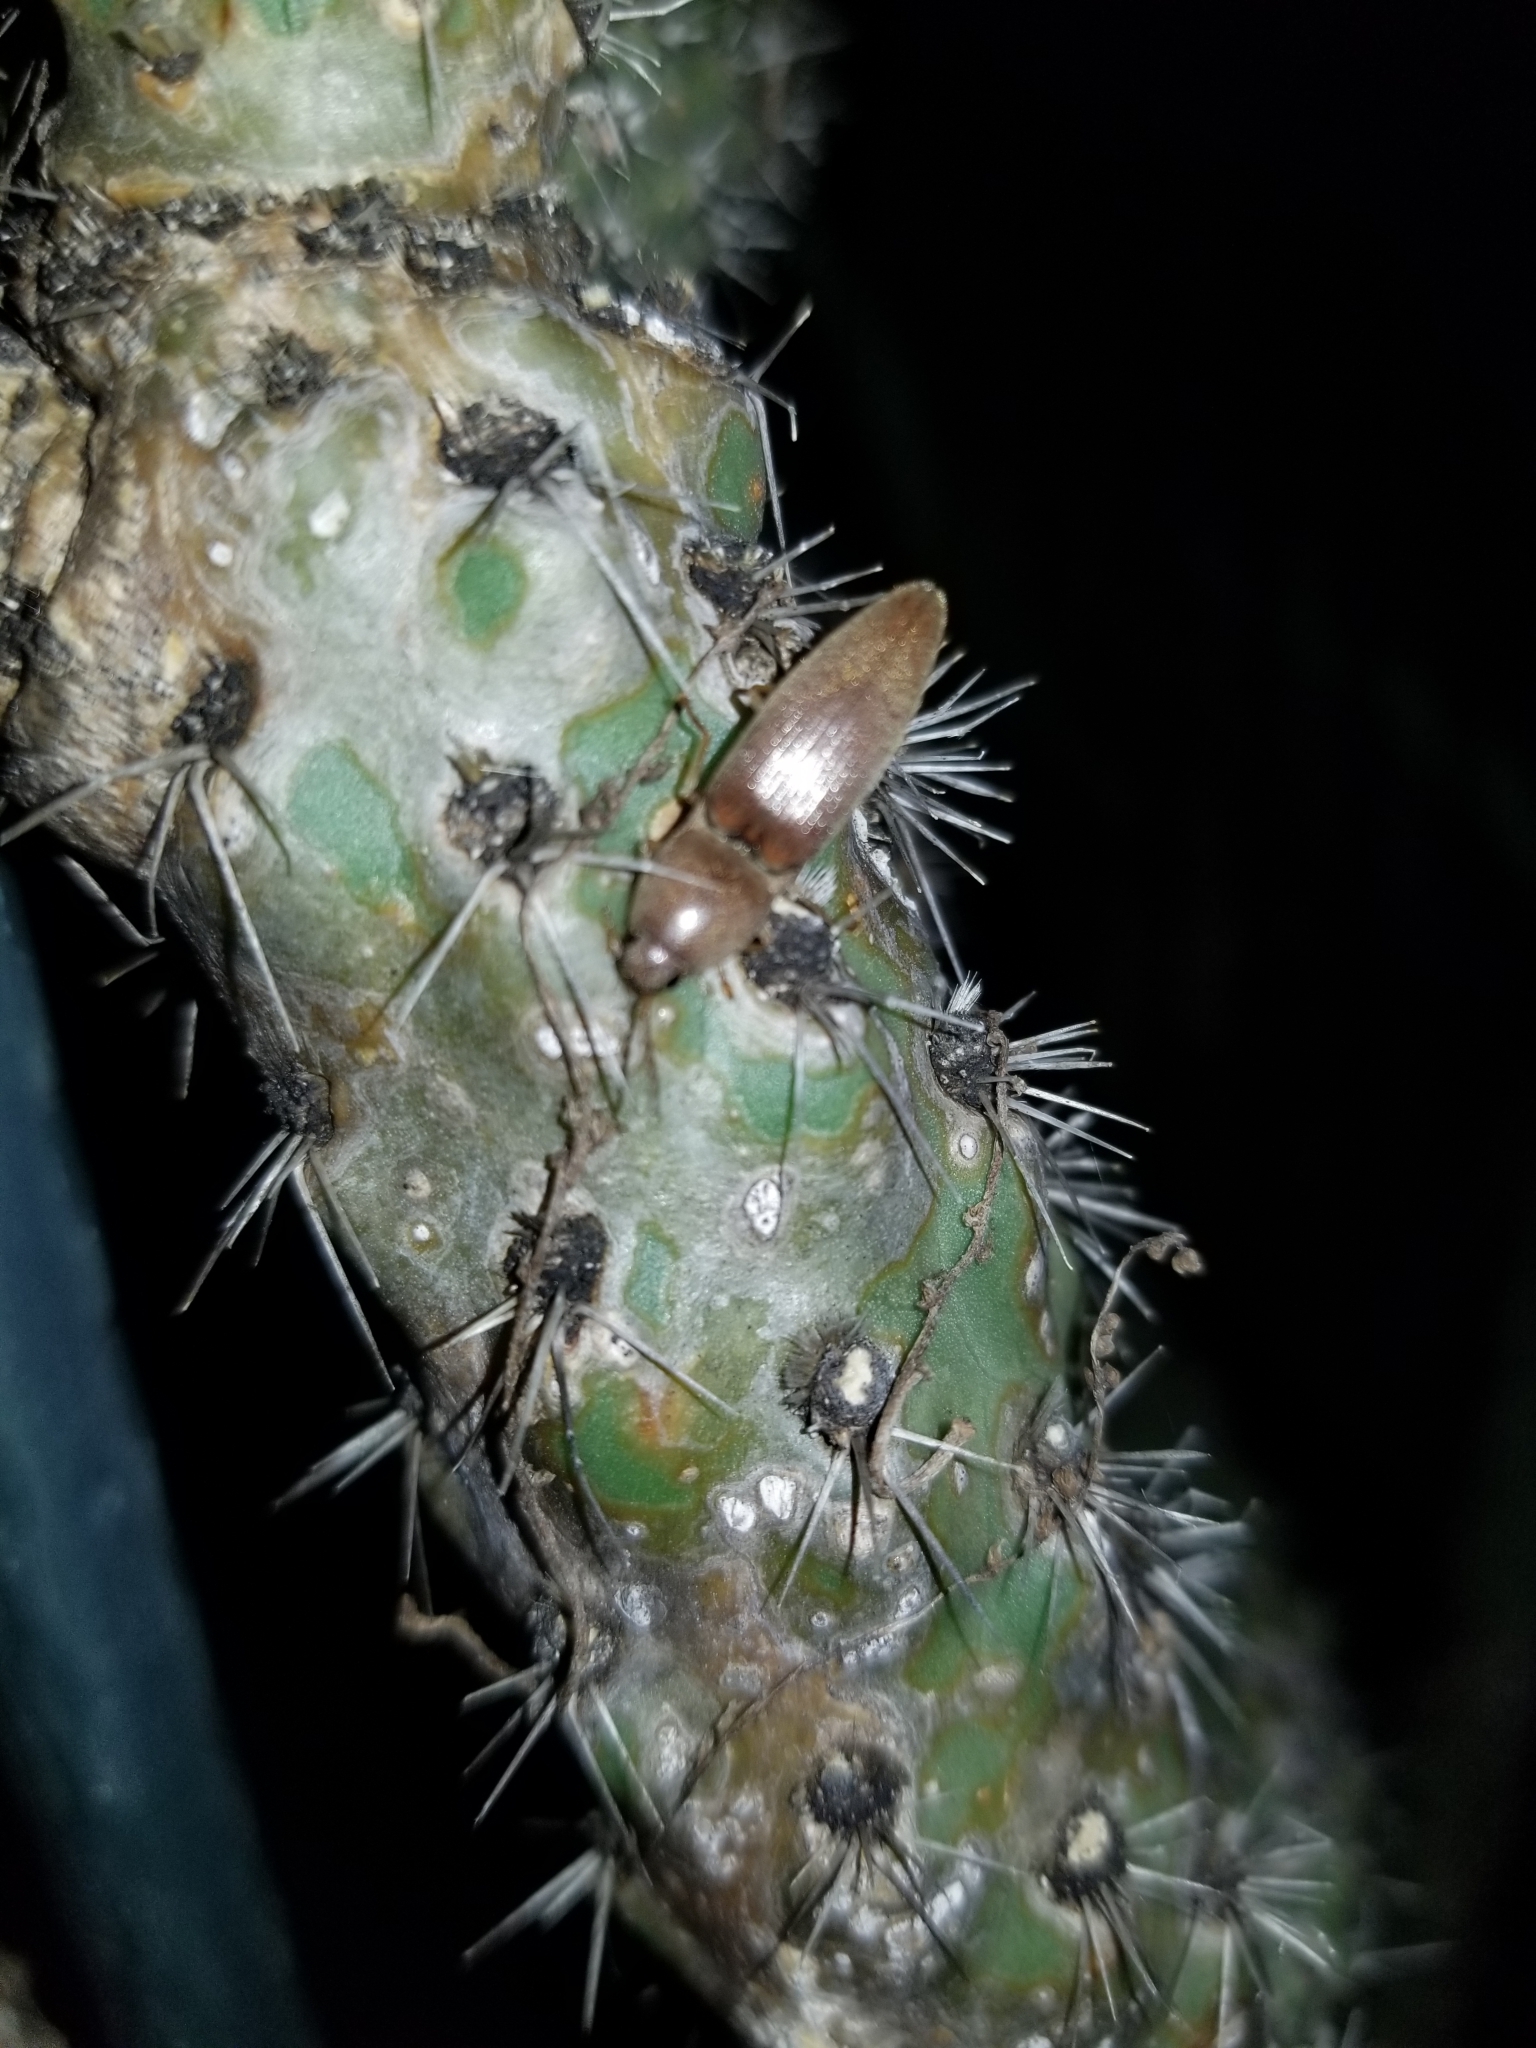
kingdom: Animalia
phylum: Arthropoda
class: Insecta
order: Coleoptera
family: Elateridae
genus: Monocrepidius
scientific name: Monocrepidius lividus
